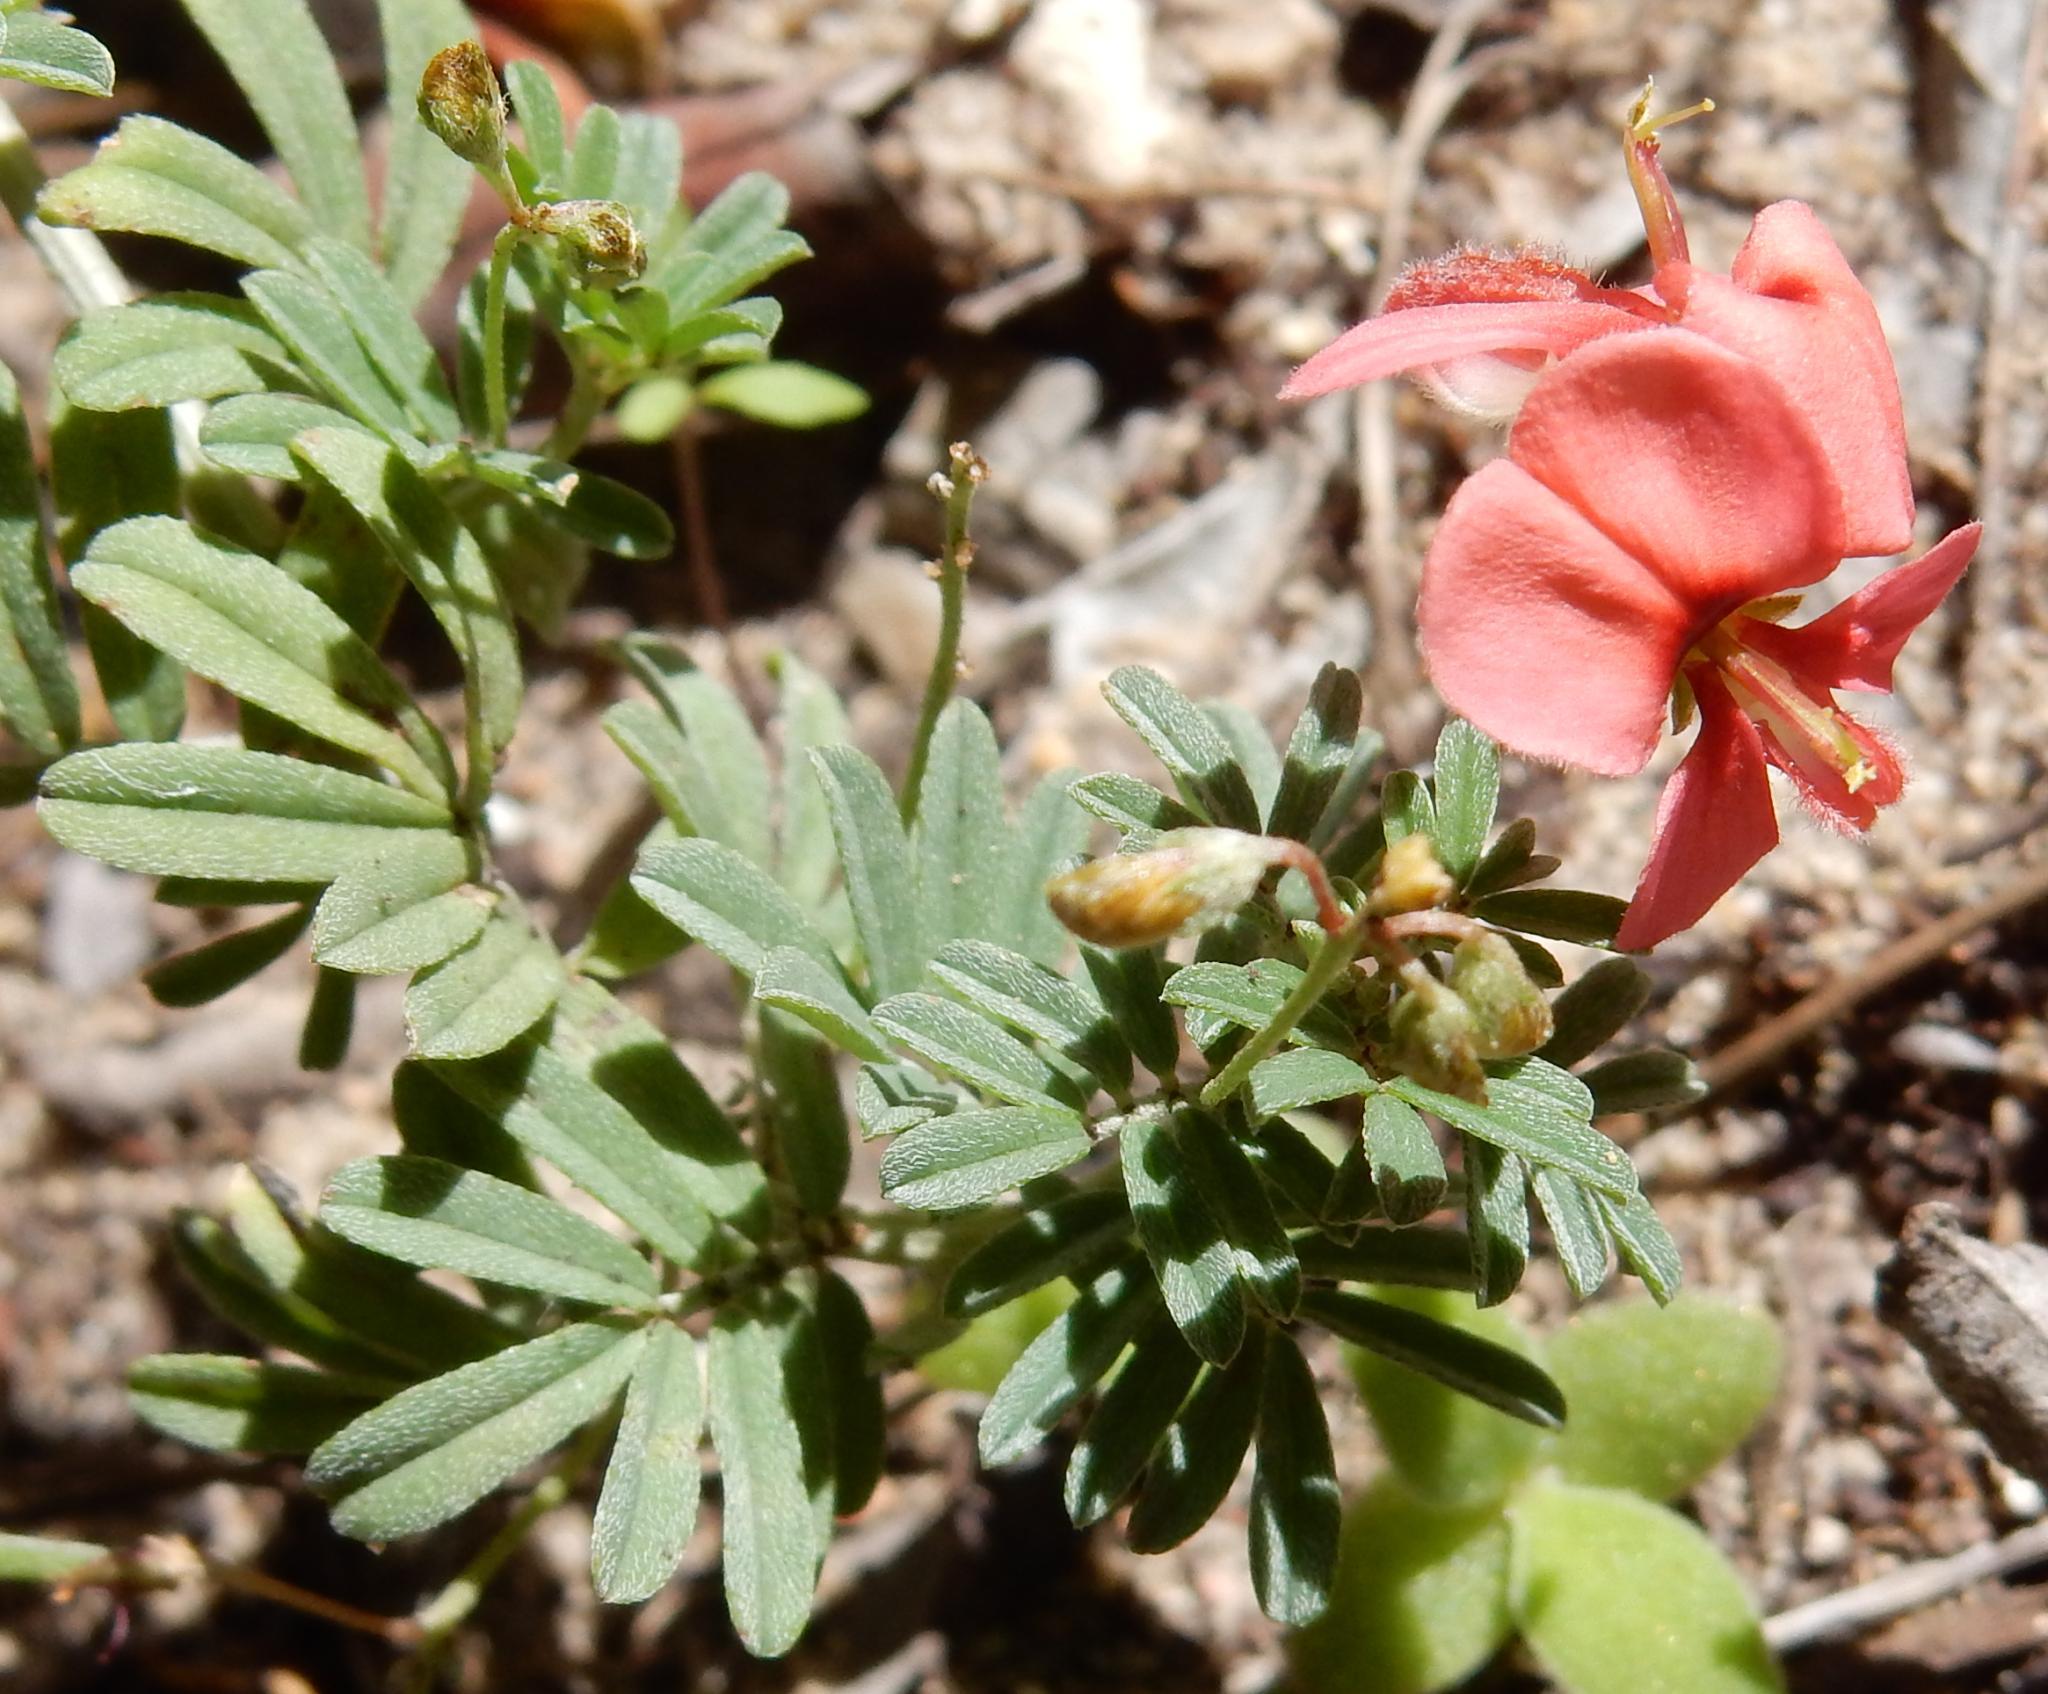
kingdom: Plantae
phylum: Tracheophyta
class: Magnoliopsida
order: Fabales
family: Fabaceae
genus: Indigofera
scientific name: Indigofera verrucosa
